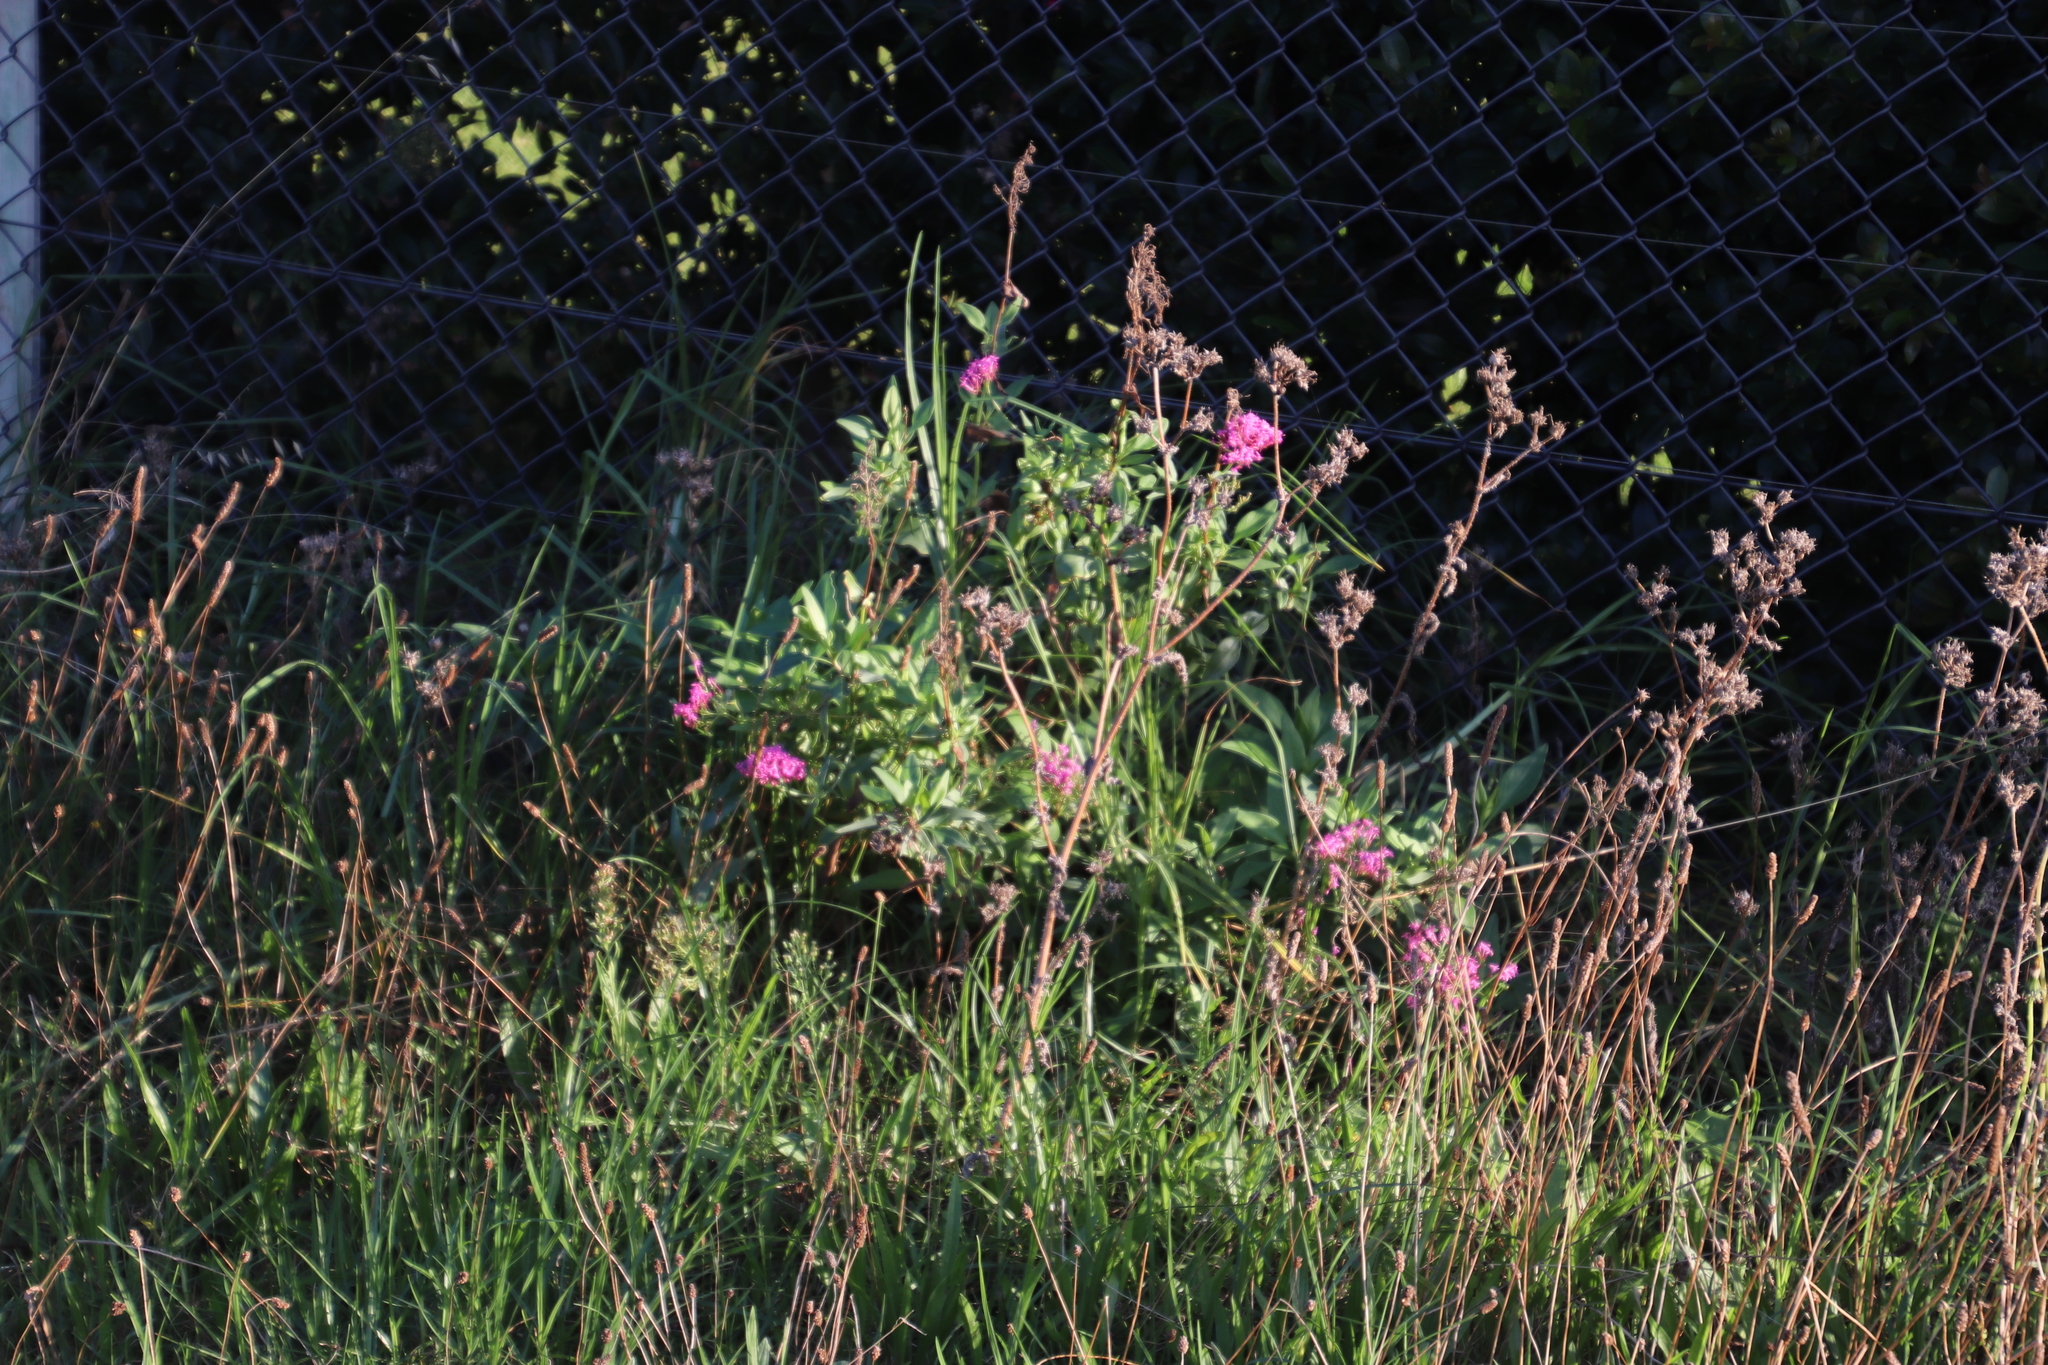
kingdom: Plantae
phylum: Tracheophyta
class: Magnoliopsida
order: Dipsacales
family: Caprifoliaceae
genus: Centranthus
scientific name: Centranthus ruber
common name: Red valerian
